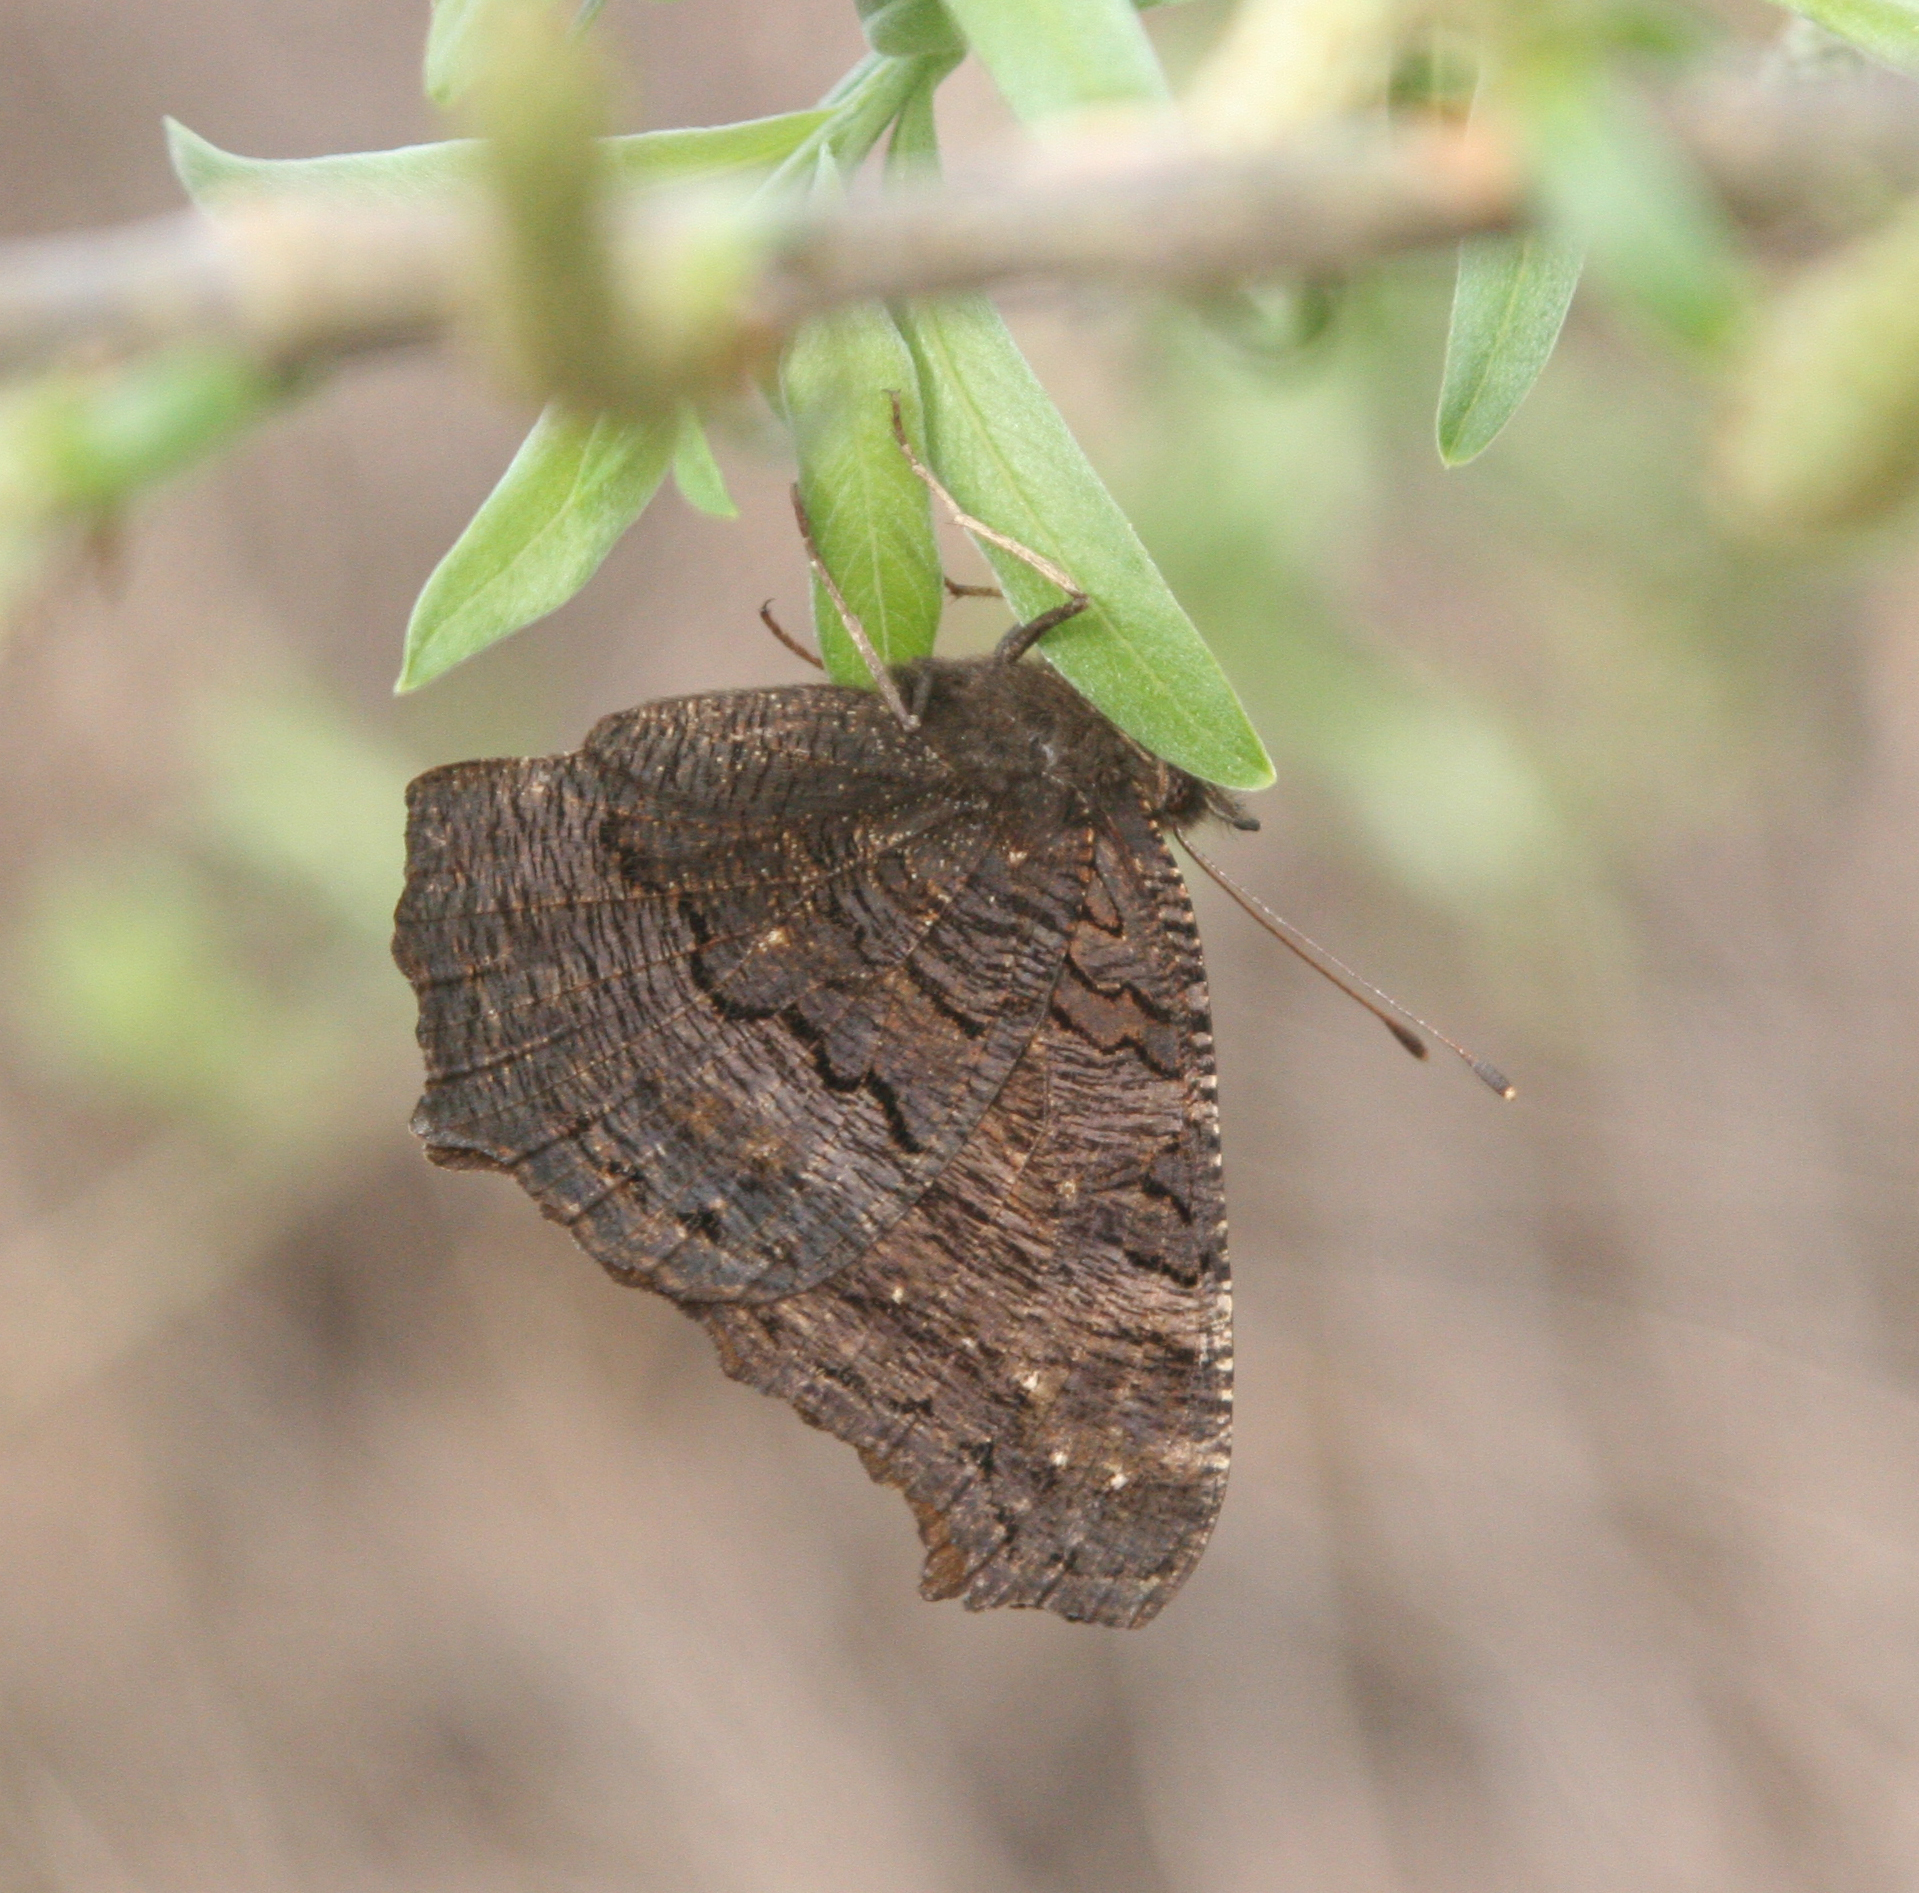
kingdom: Animalia
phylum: Arthropoda
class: Insecta
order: Lepidoptera
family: Nymphalidae
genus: Aglais
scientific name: Aglais io
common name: Peacock
